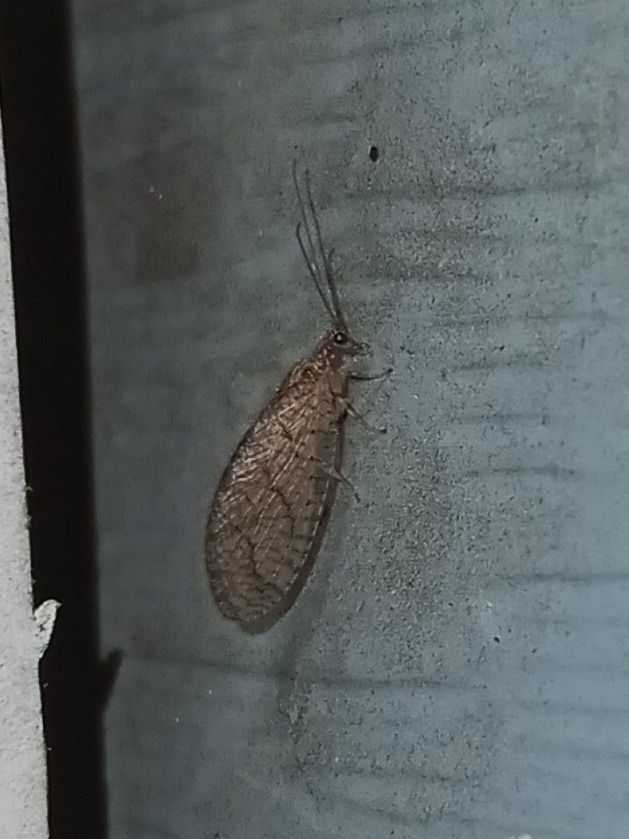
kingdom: Animalia
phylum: Arthropoda
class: Insecta
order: Neuroptera
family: Hemerobiidae
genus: Micromus
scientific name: Micromus posticus
